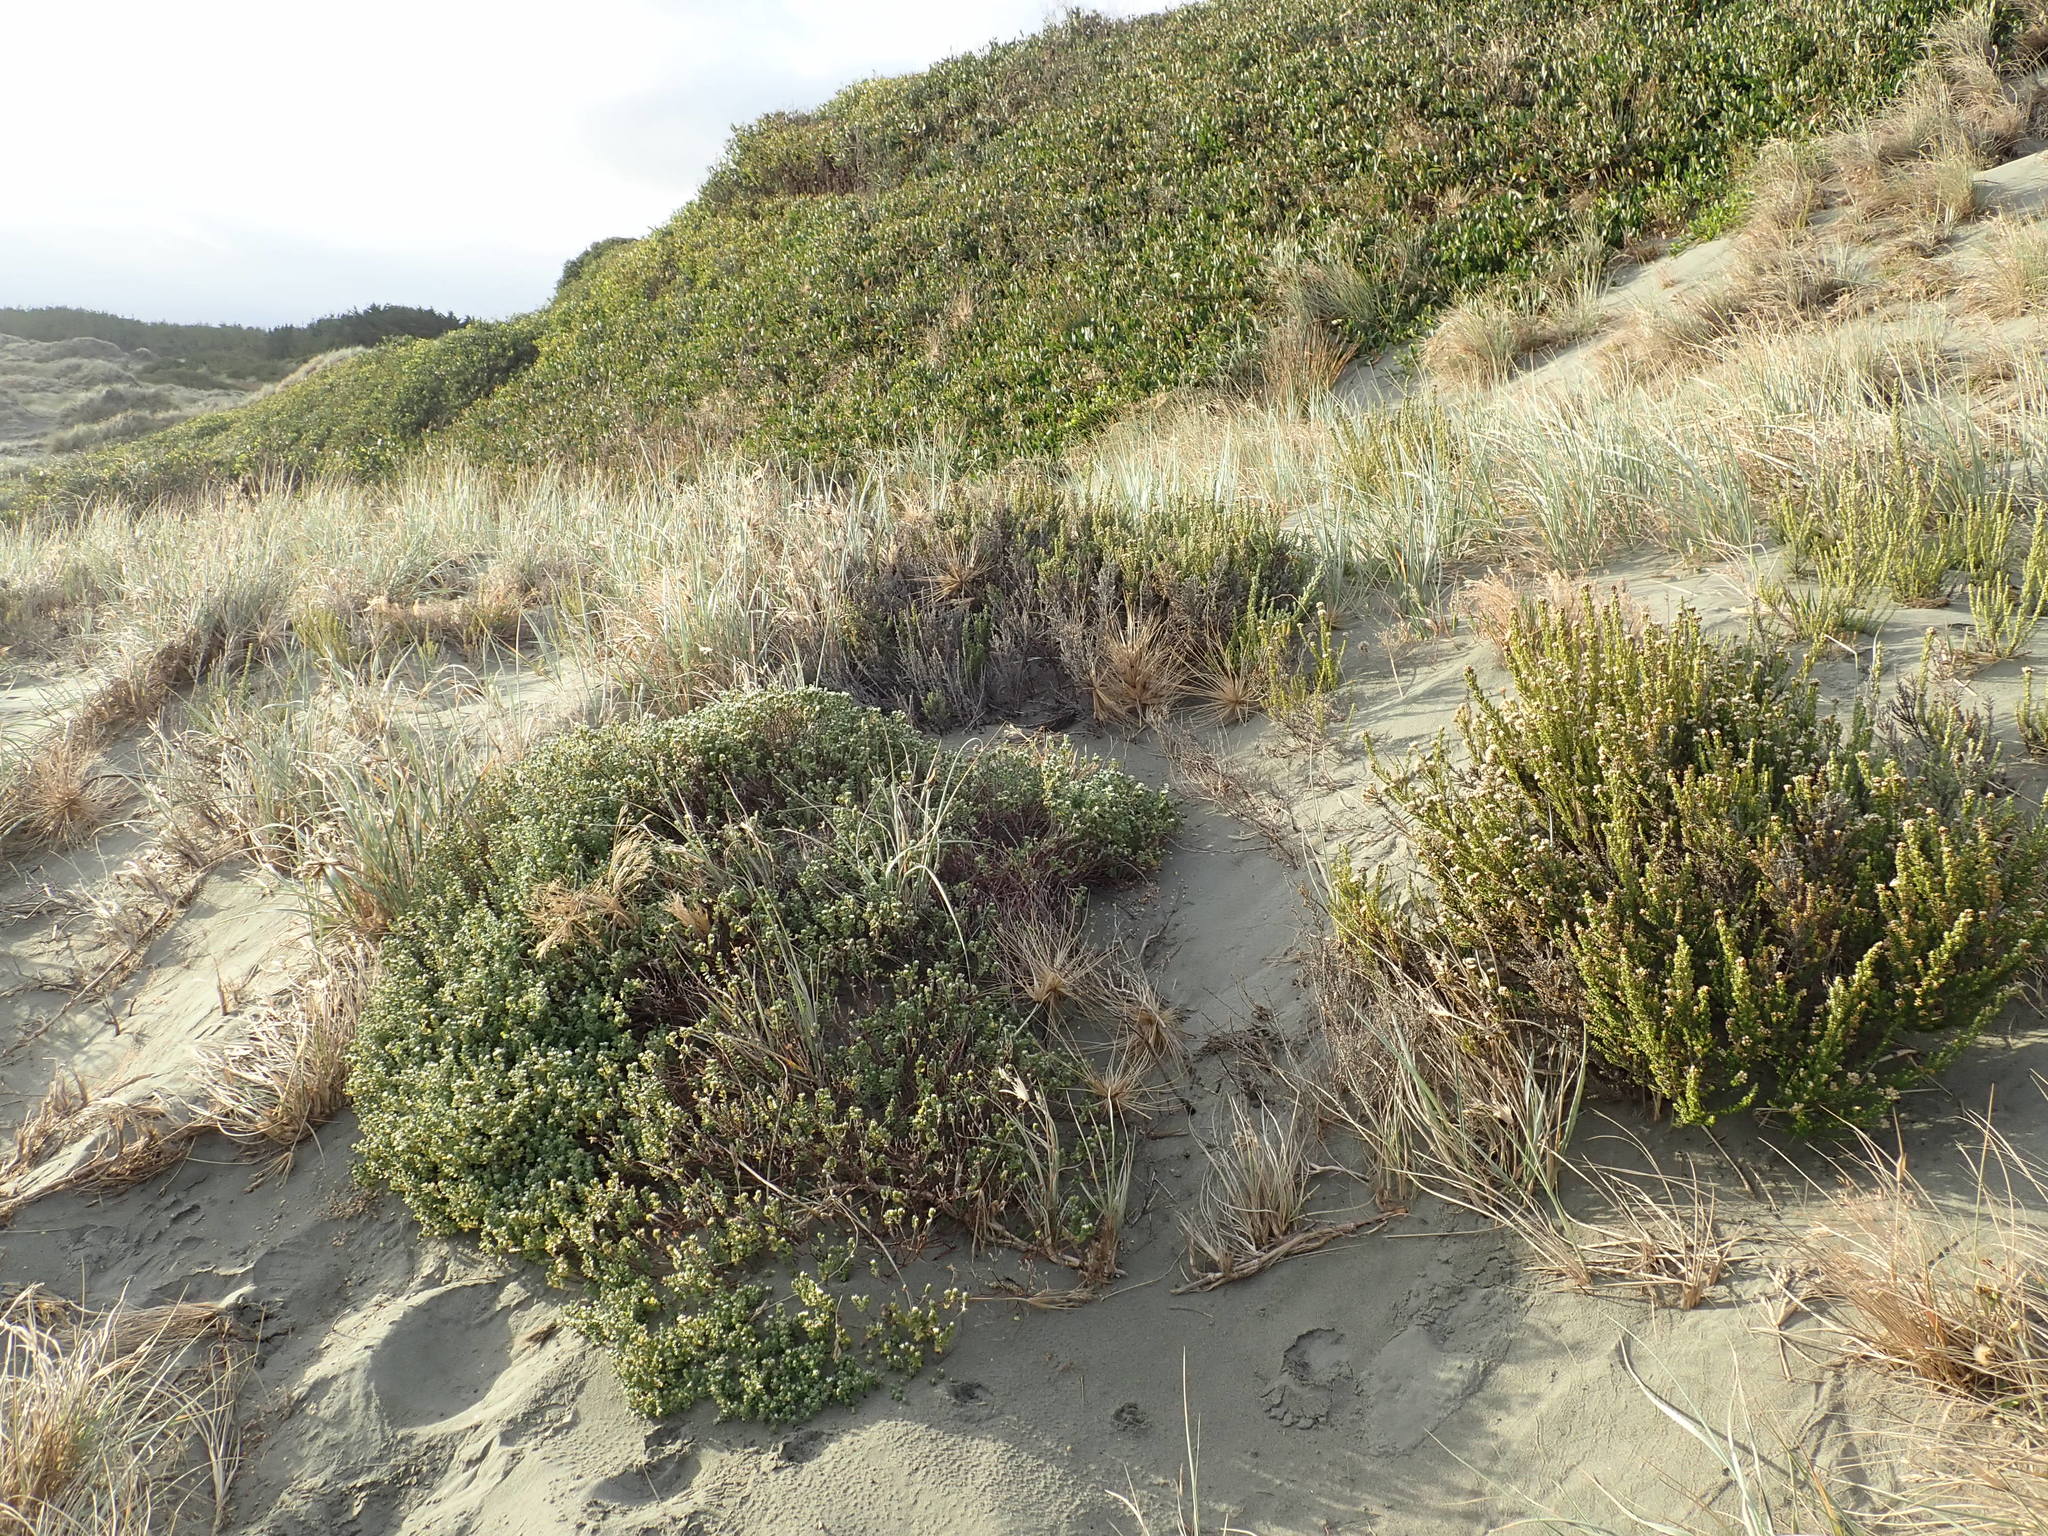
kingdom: Plantae
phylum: Tracheophyta
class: Magnoliopsida
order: Malvales
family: Thymelaeaceae
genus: Pimelea
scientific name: Pimelea villosa
